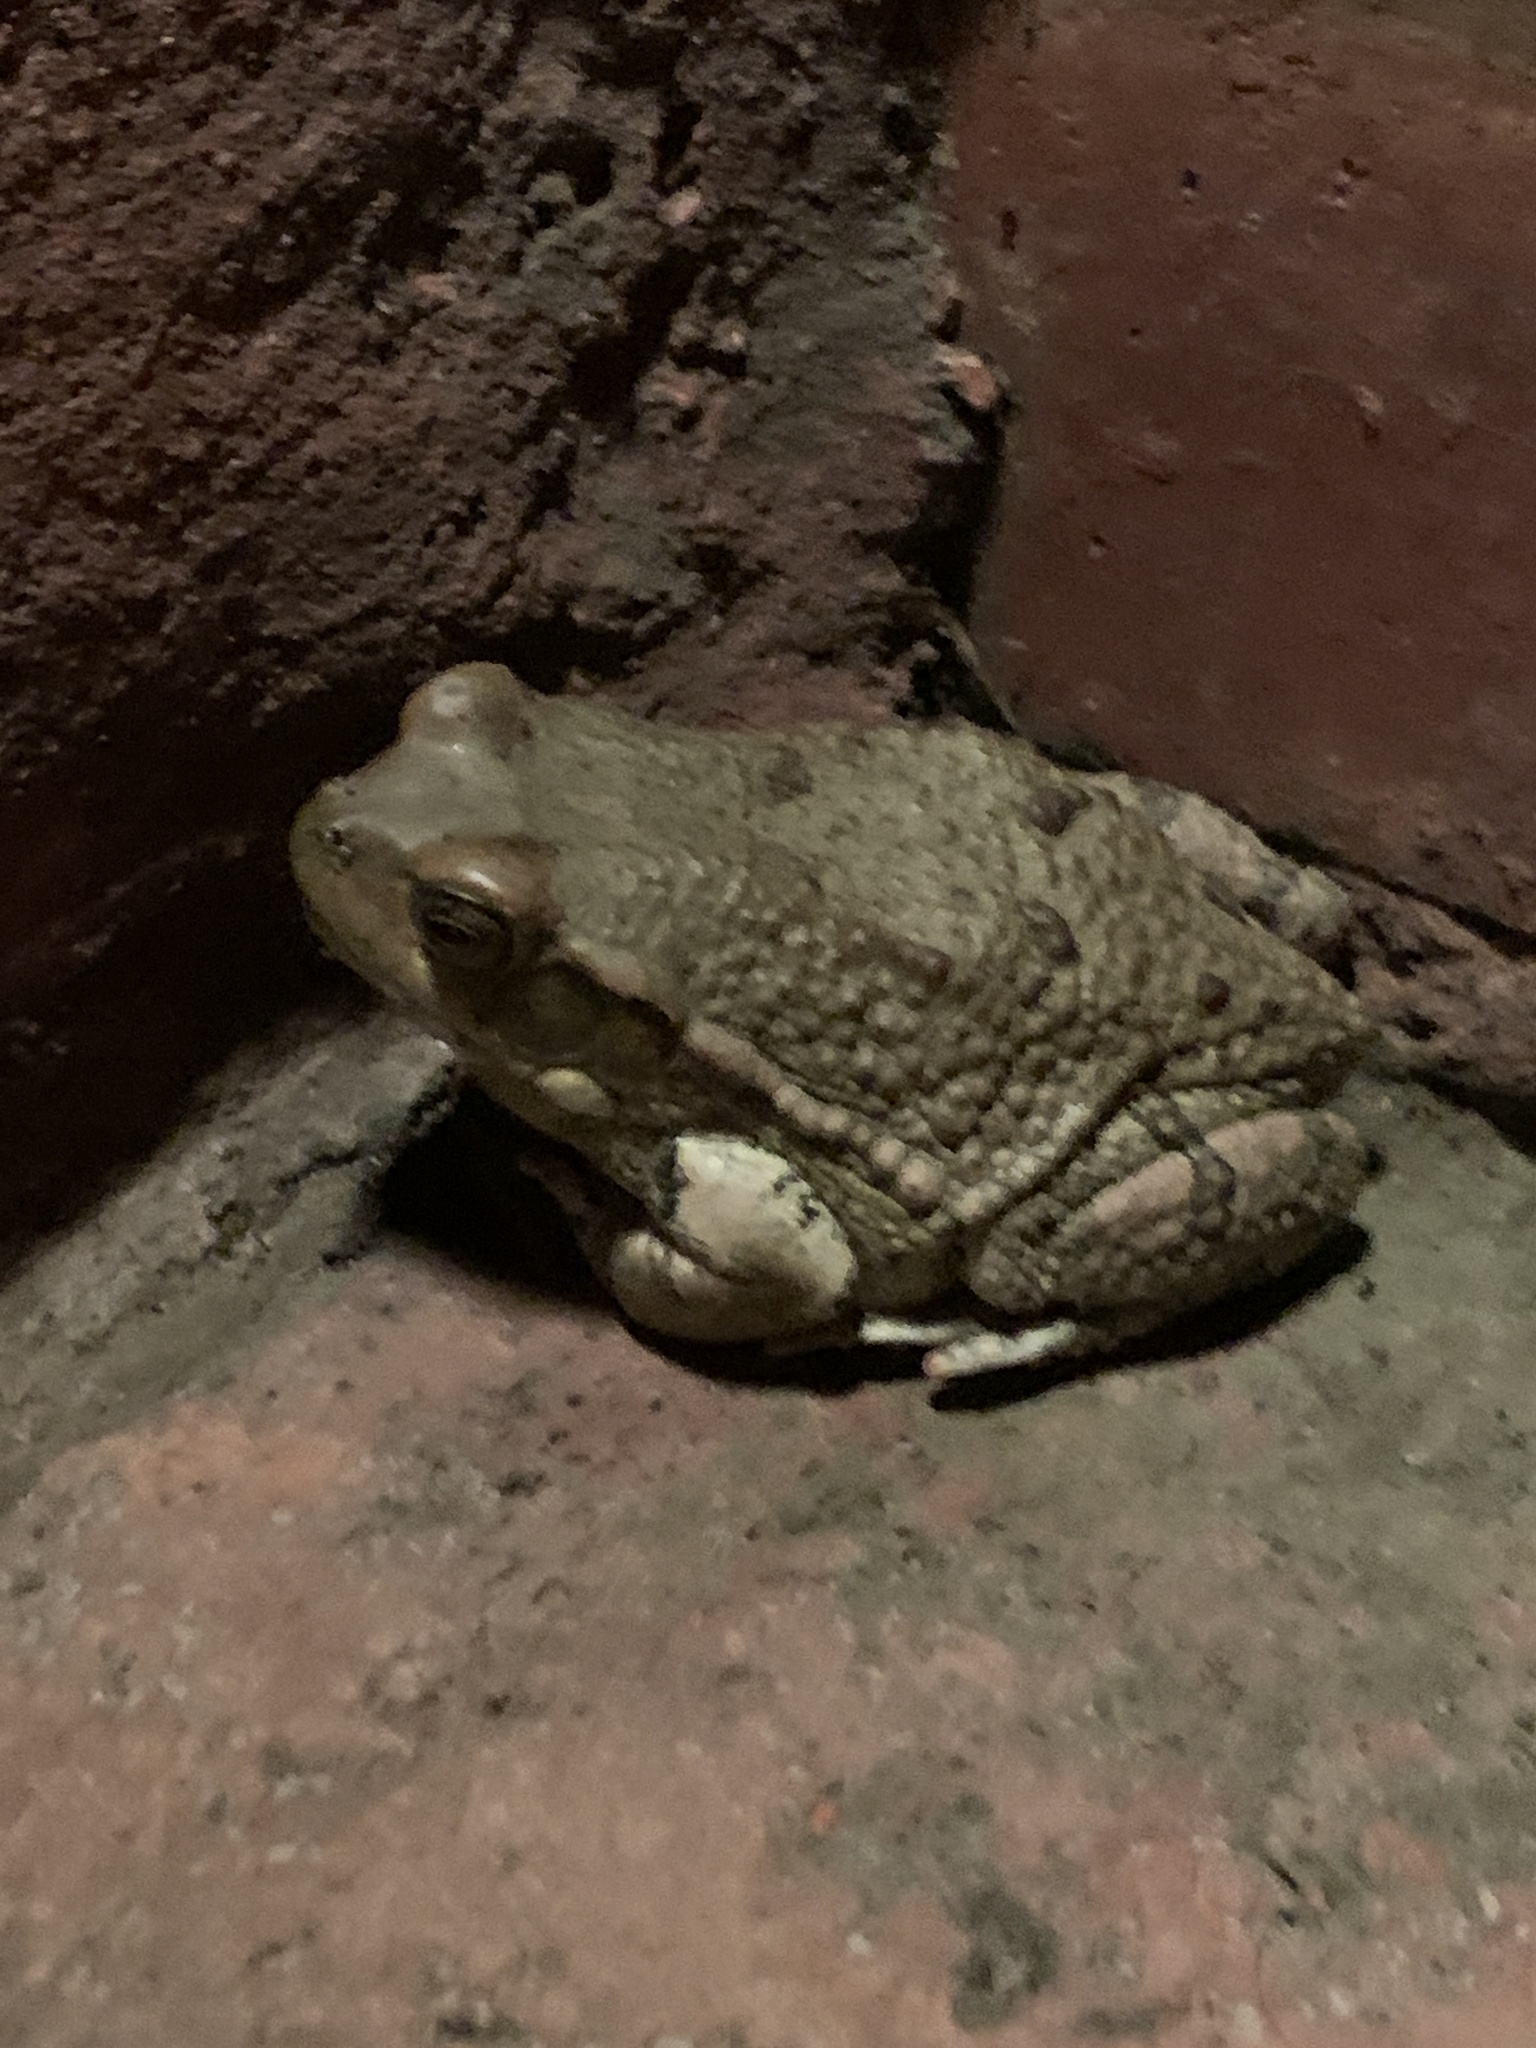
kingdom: Animalia
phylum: Chordata
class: Amphibia
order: Anura
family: Bufonidae
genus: Schismaderma
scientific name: Schismaderma carens
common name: African split-skin toad
